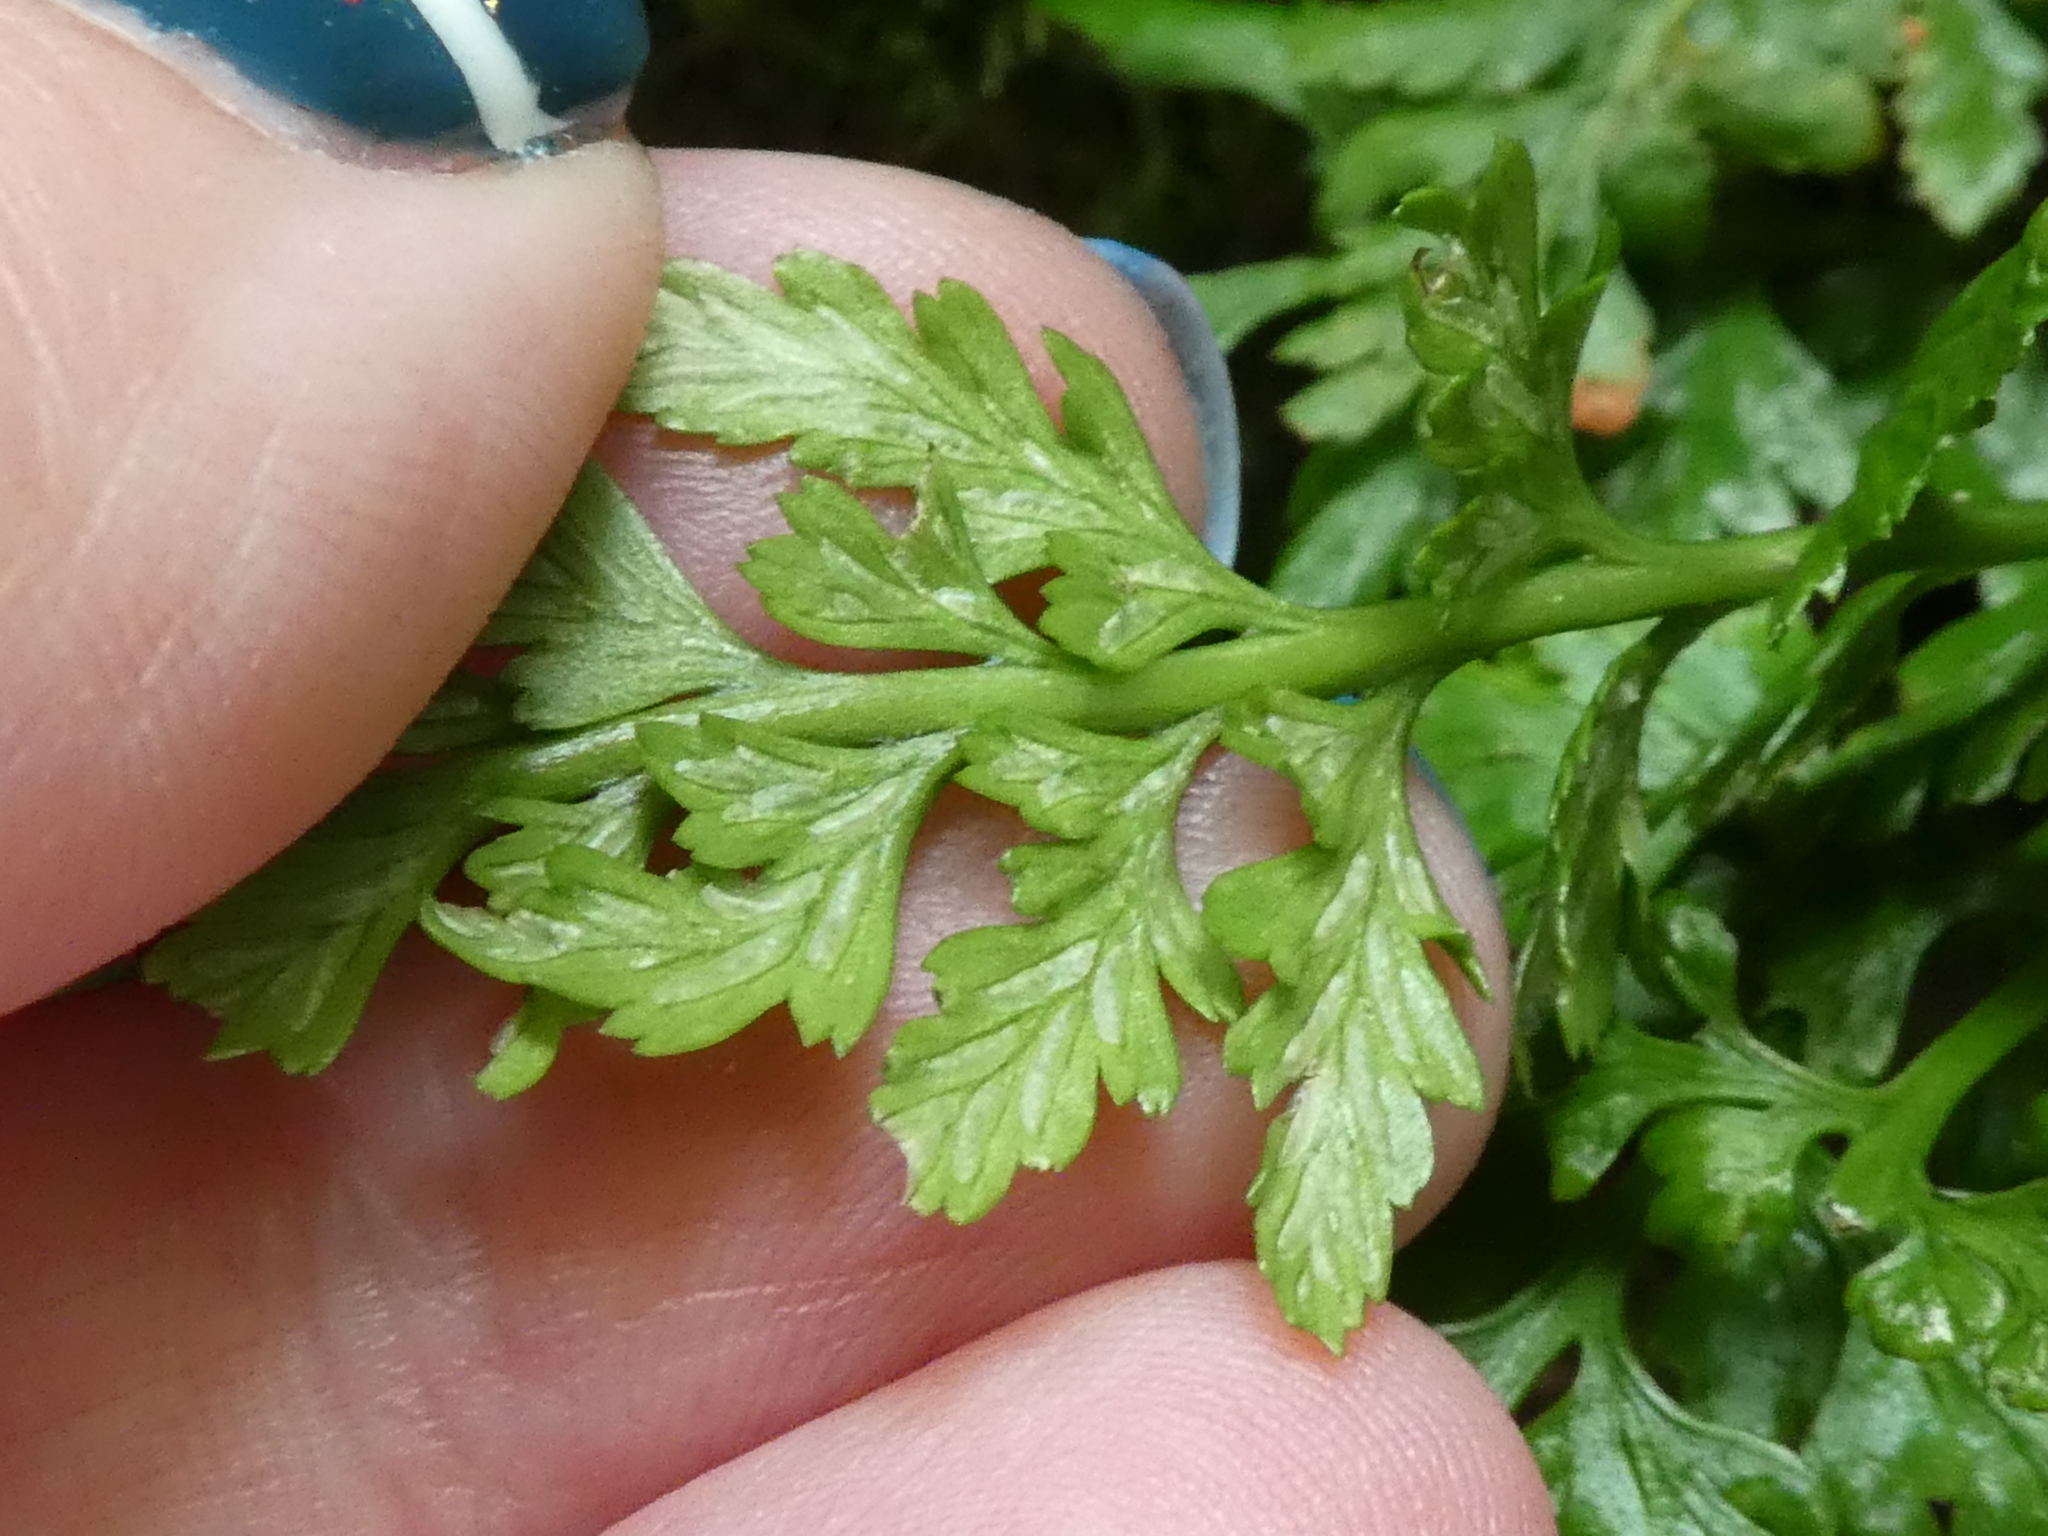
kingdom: Plantae
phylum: Tracheophyta
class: Polypodiopsida
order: Polypodiales
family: Aspleniaceae
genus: Asplenium
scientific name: Asplenium adiantum-nigrum
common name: Black spleenwort
